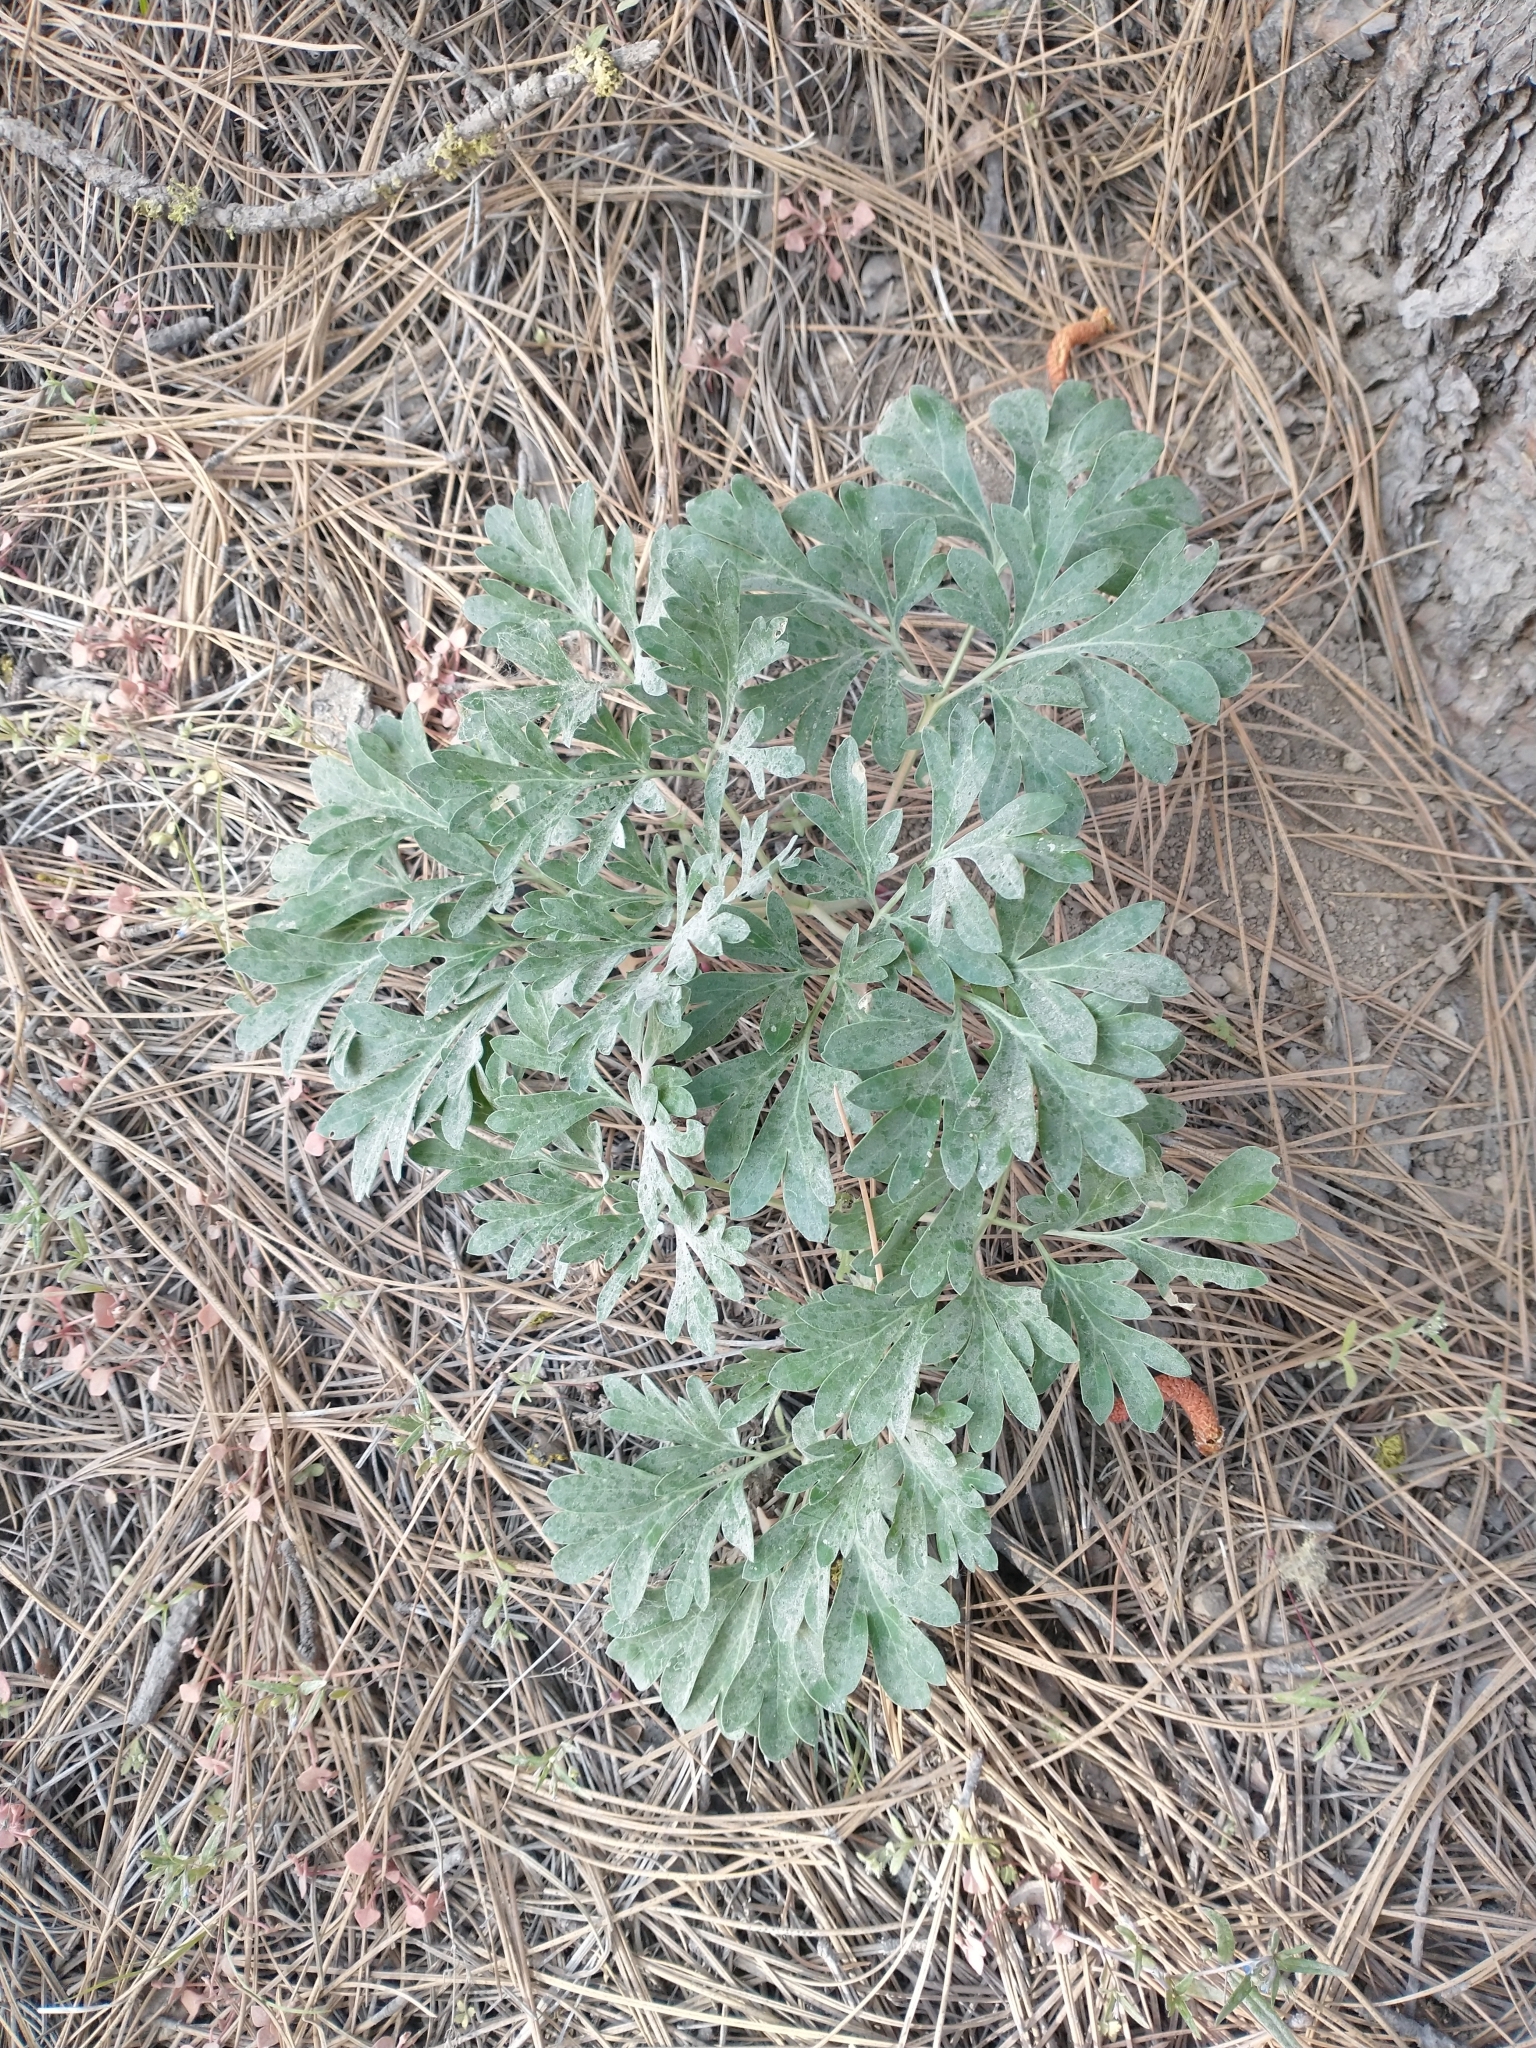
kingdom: Plantae
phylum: Tracheophyta
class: Magnoliopsida
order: Saxifragales
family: Paeoniaceae
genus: Paeonia
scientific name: Paeonia brownii
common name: Brown's peony
